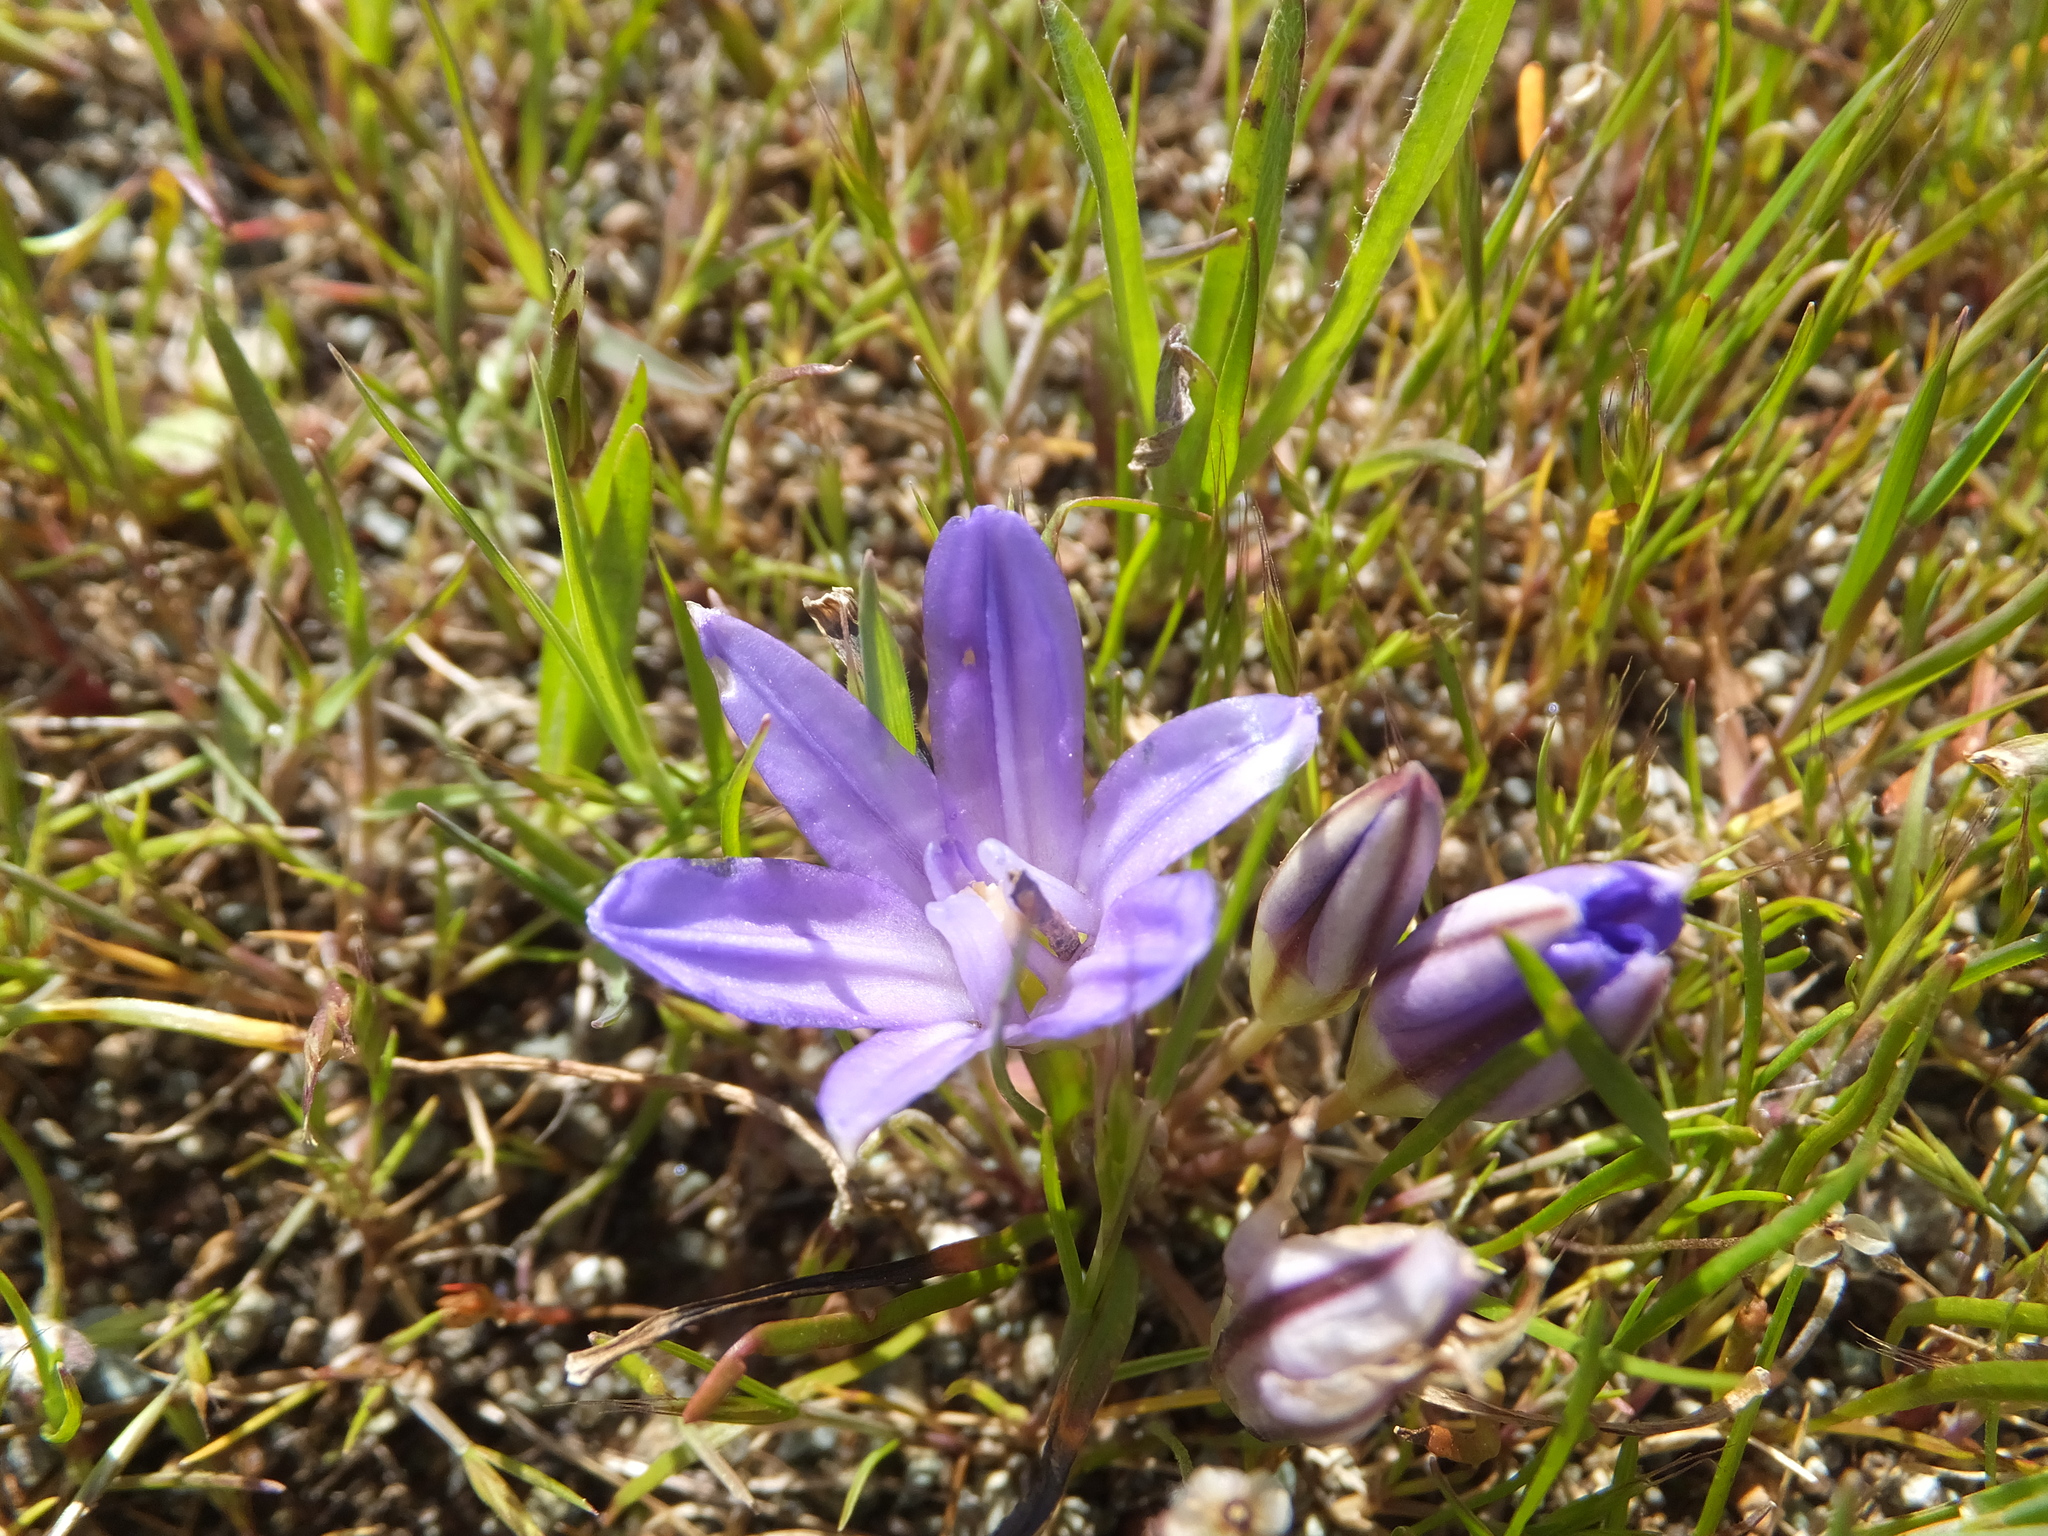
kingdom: Plantae
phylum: Tracheophyta
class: Liliopsida
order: Asparagales
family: Asparagaceae
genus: Brodiaea
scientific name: Brodiaea terrestris
